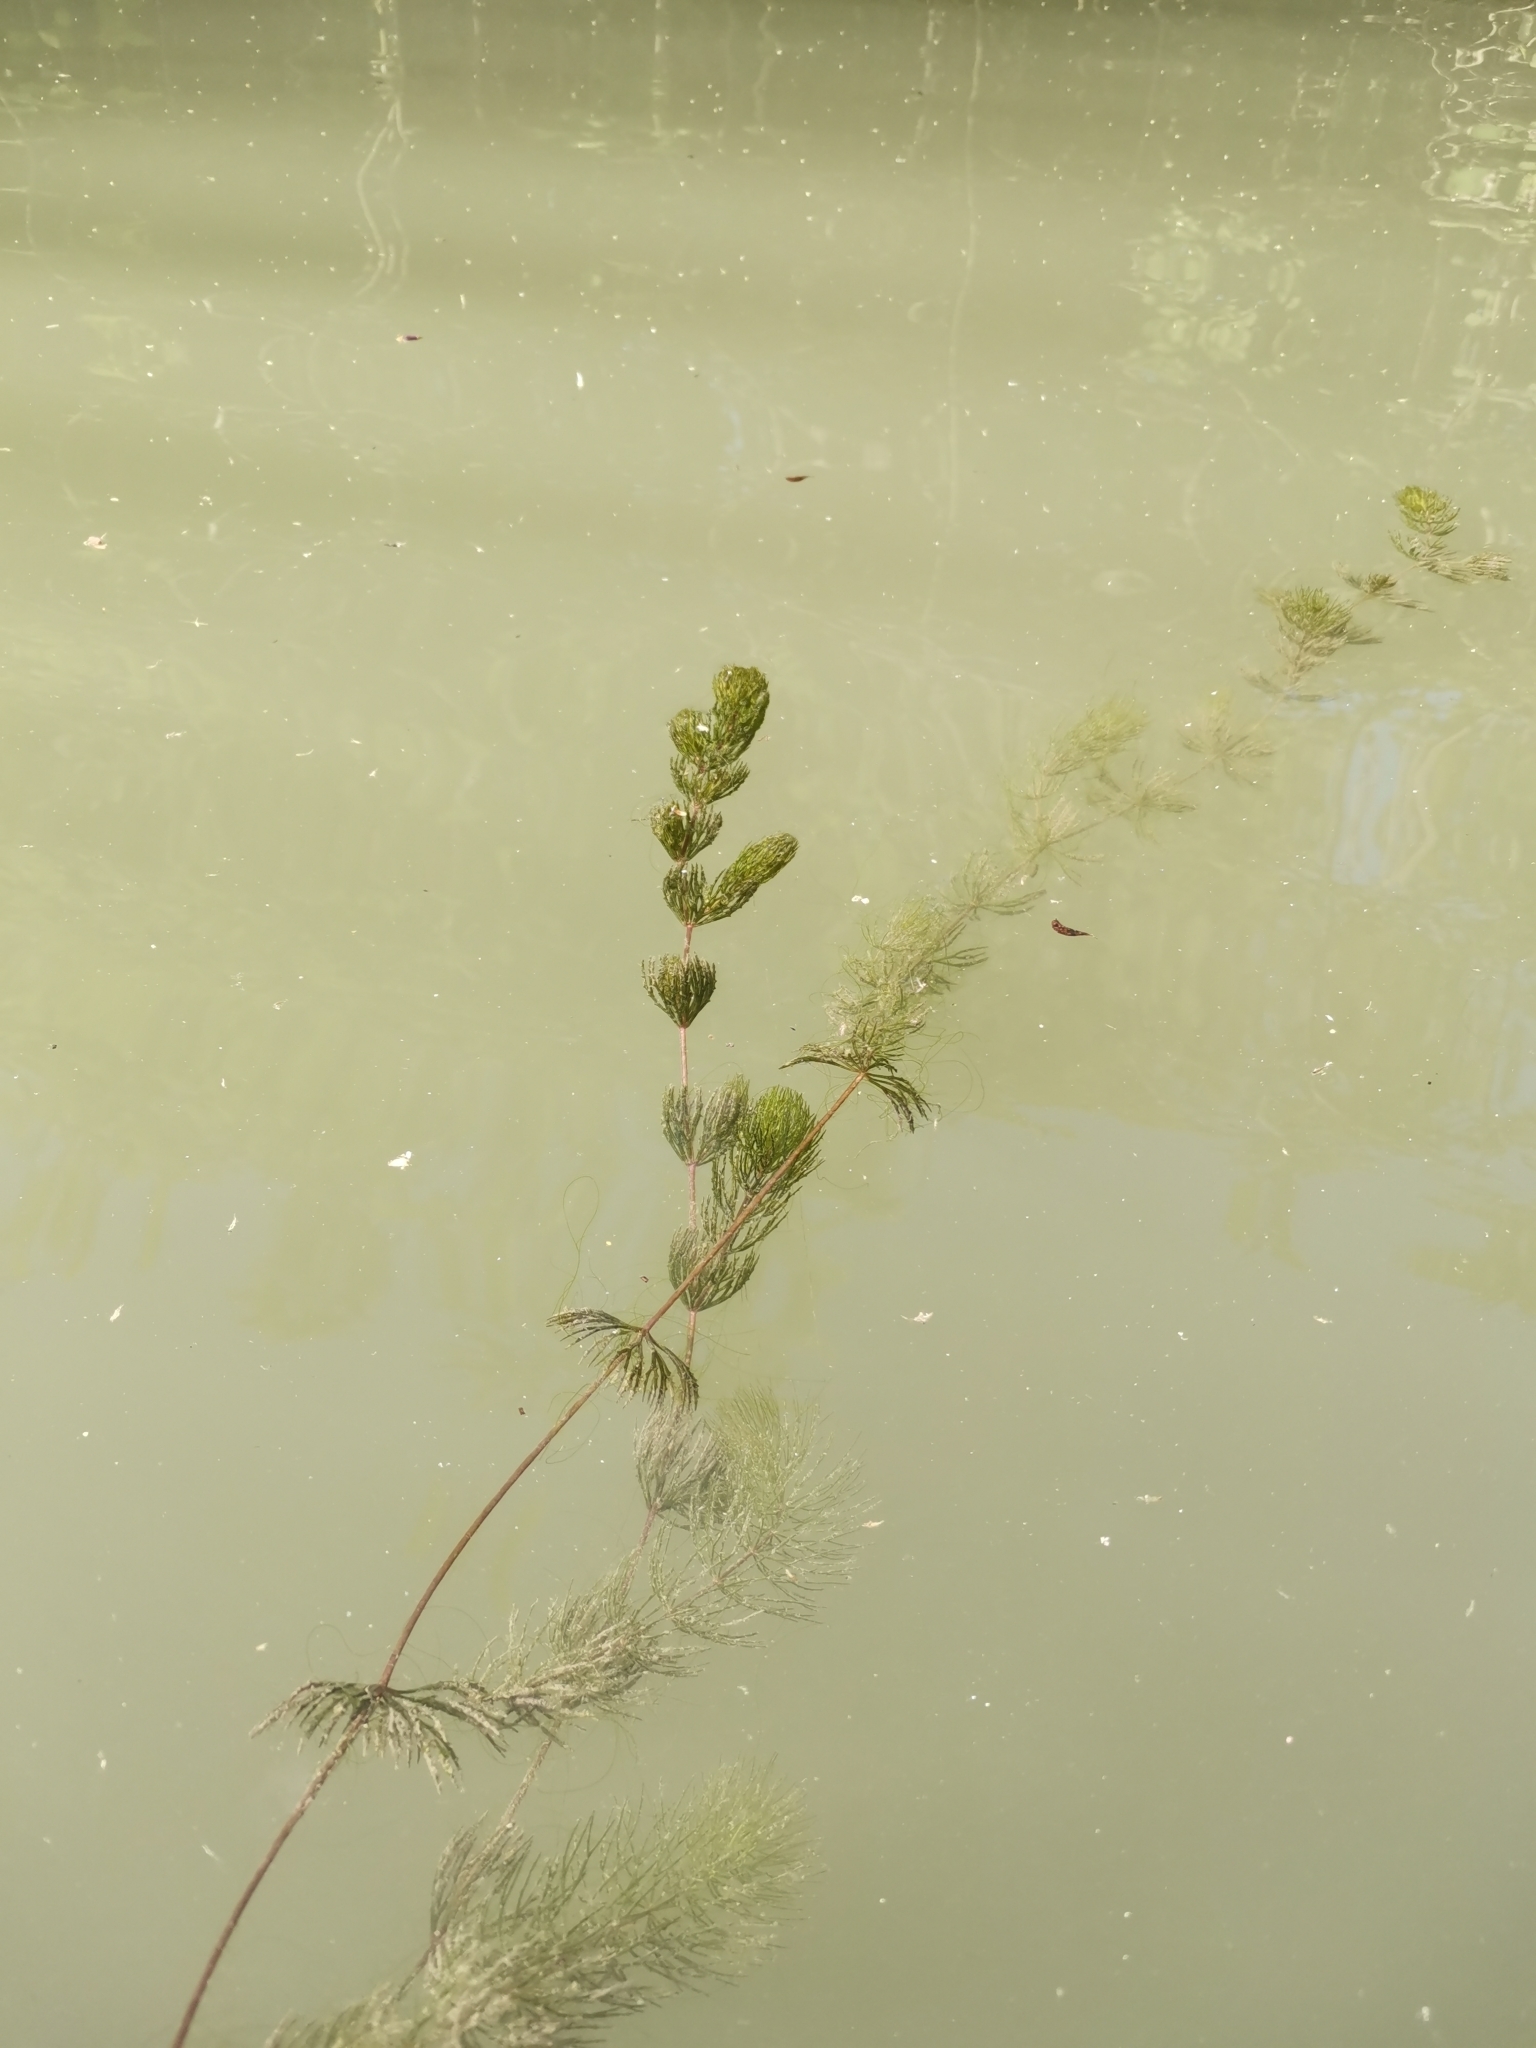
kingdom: Plantae
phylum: Tracheophyta
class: Magnoliopsida
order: Ceratophyllales
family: Ceratophyllaceae
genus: Ceratophyllum
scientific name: Ceratophyllum demersum
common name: Rigid hornwort
